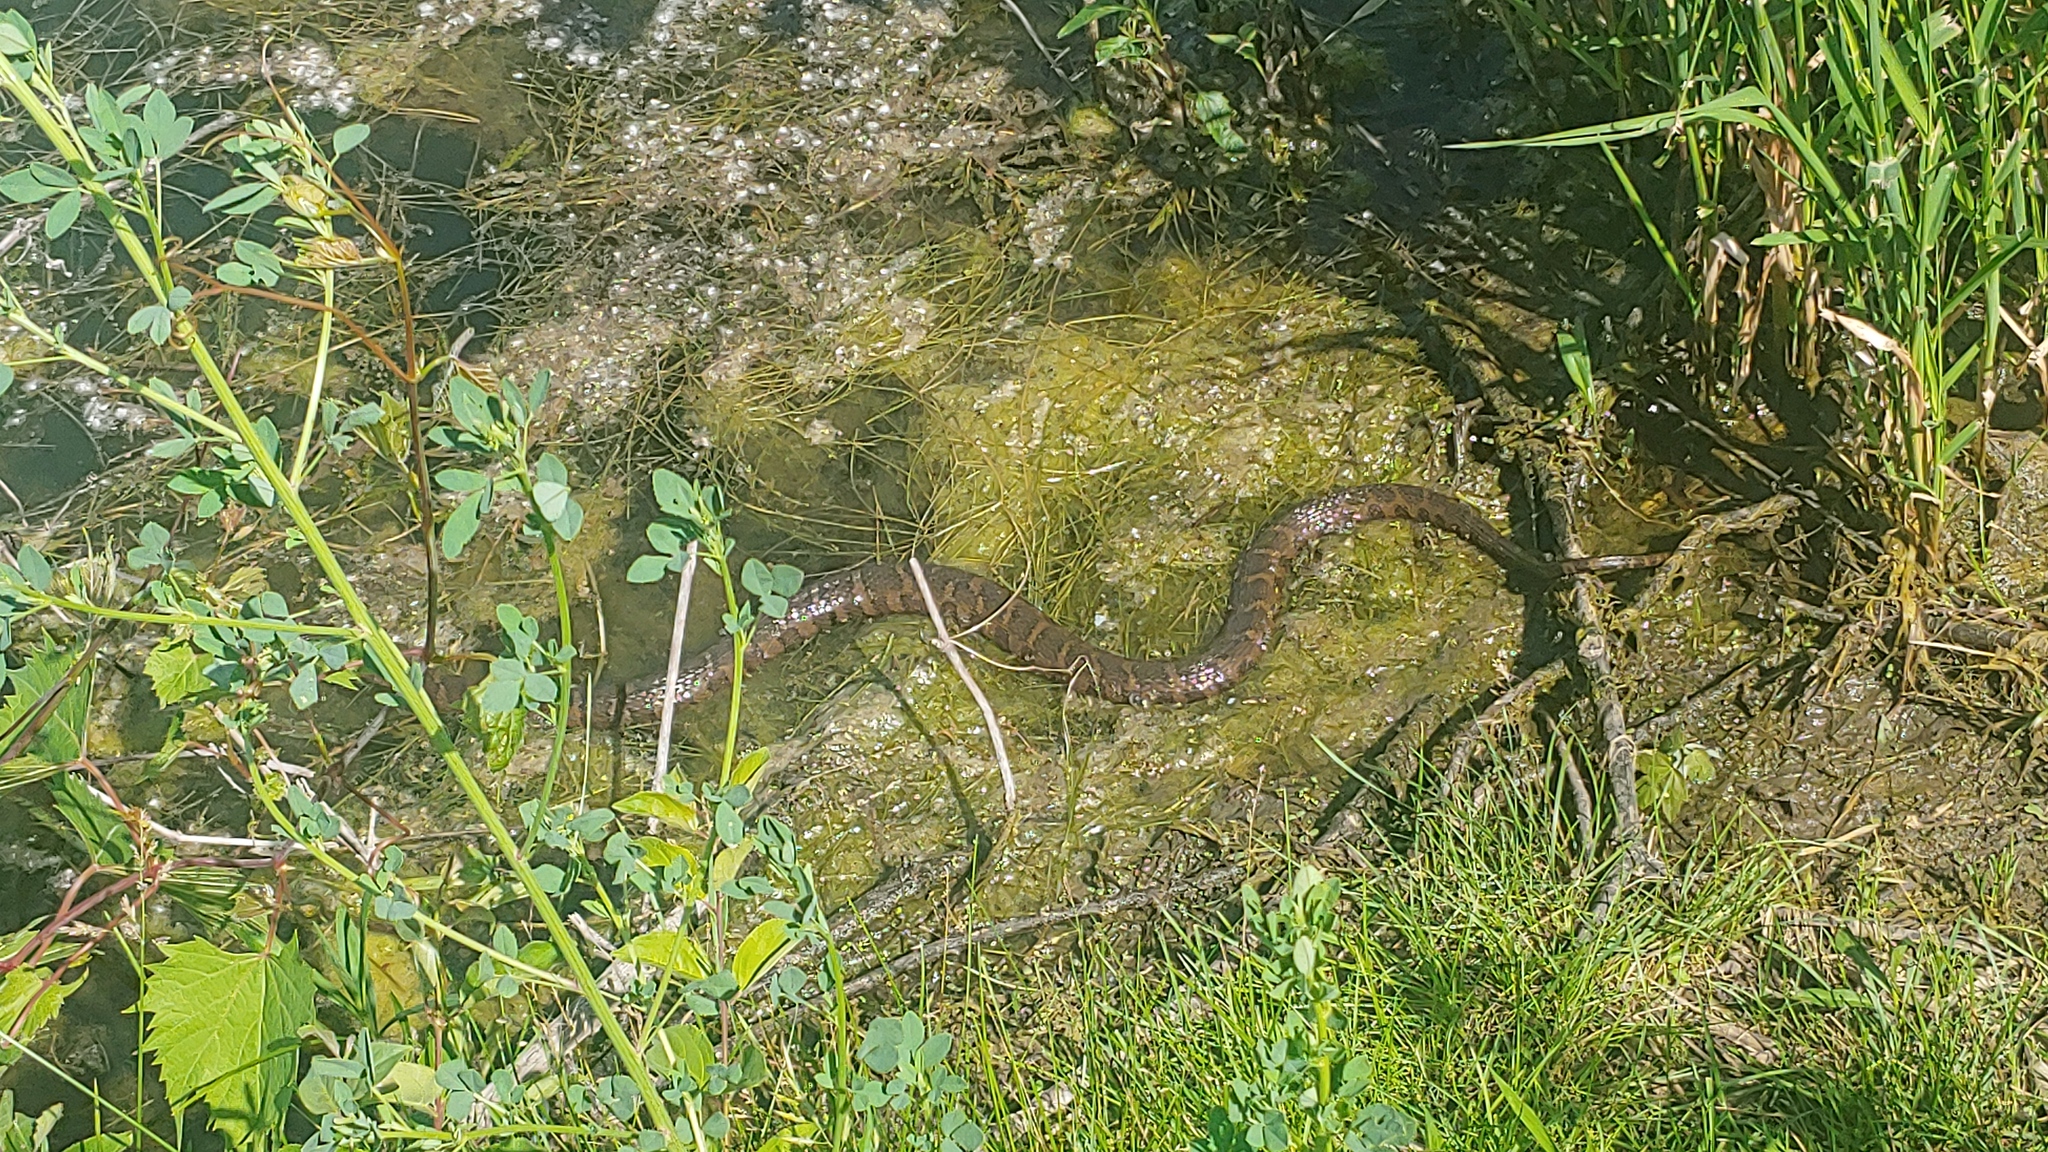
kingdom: Animalia
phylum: Chordata
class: Squamata
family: Colubridae
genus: Nerodia
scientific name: Nerodia sipedon
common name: Northern water snake
